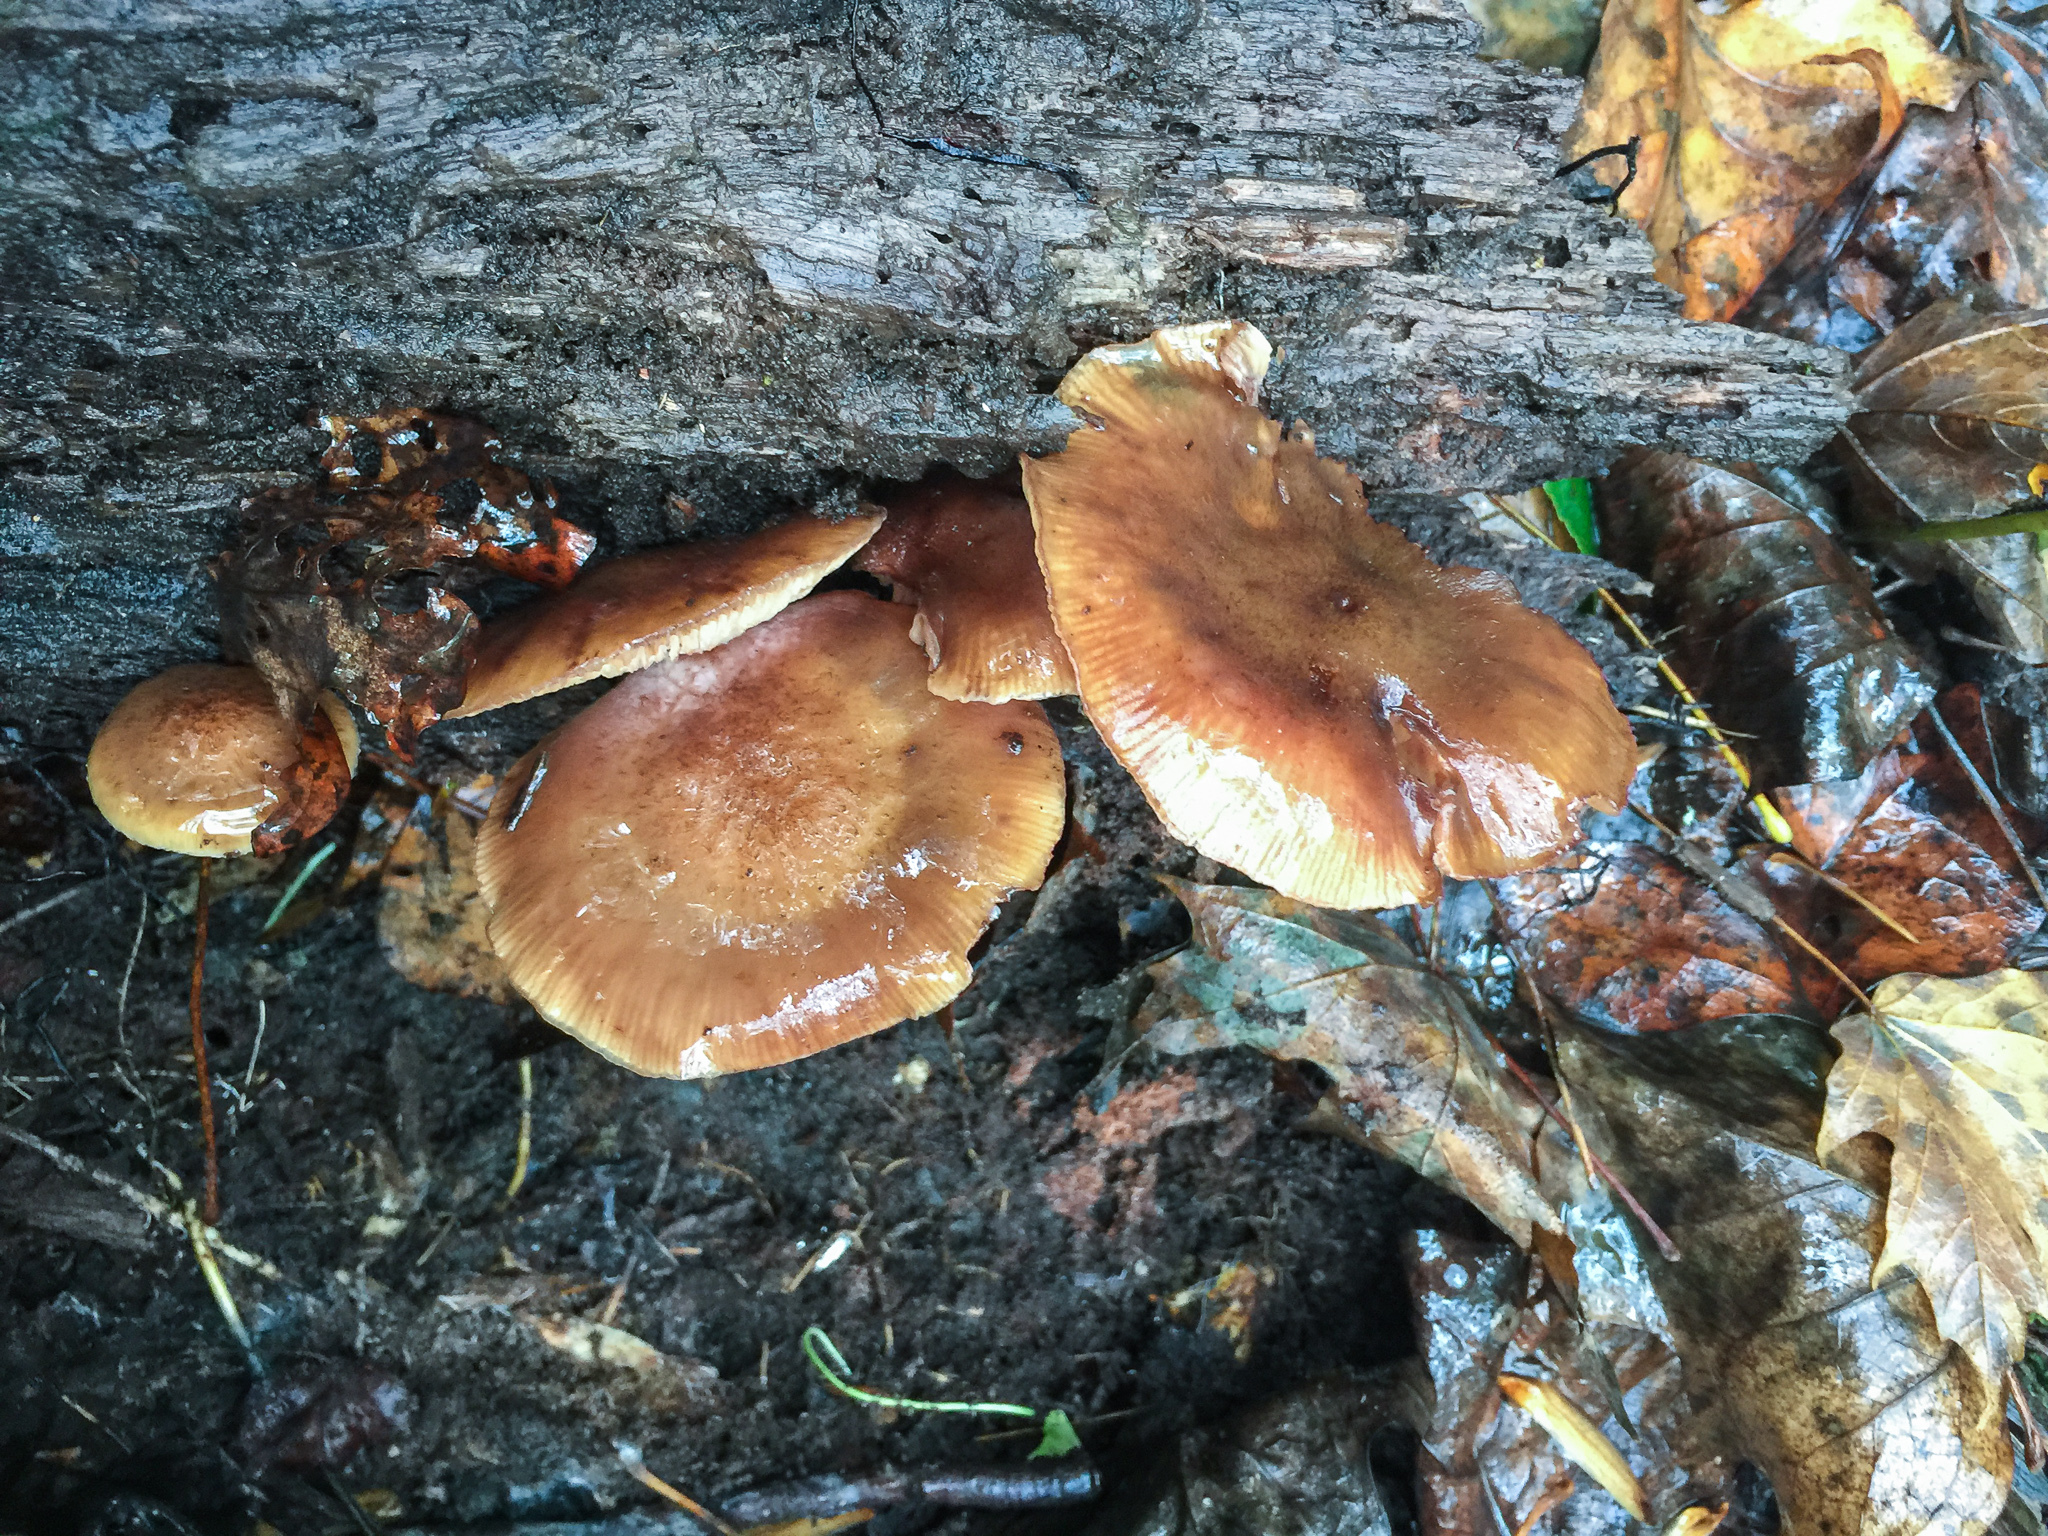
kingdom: Fungi
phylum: Basidiomycota
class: Agaricomycetes
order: Agaricales
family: Physalacriaceae
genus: Armillaria
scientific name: Armillaria gallica
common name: Bulbous honey fungus
